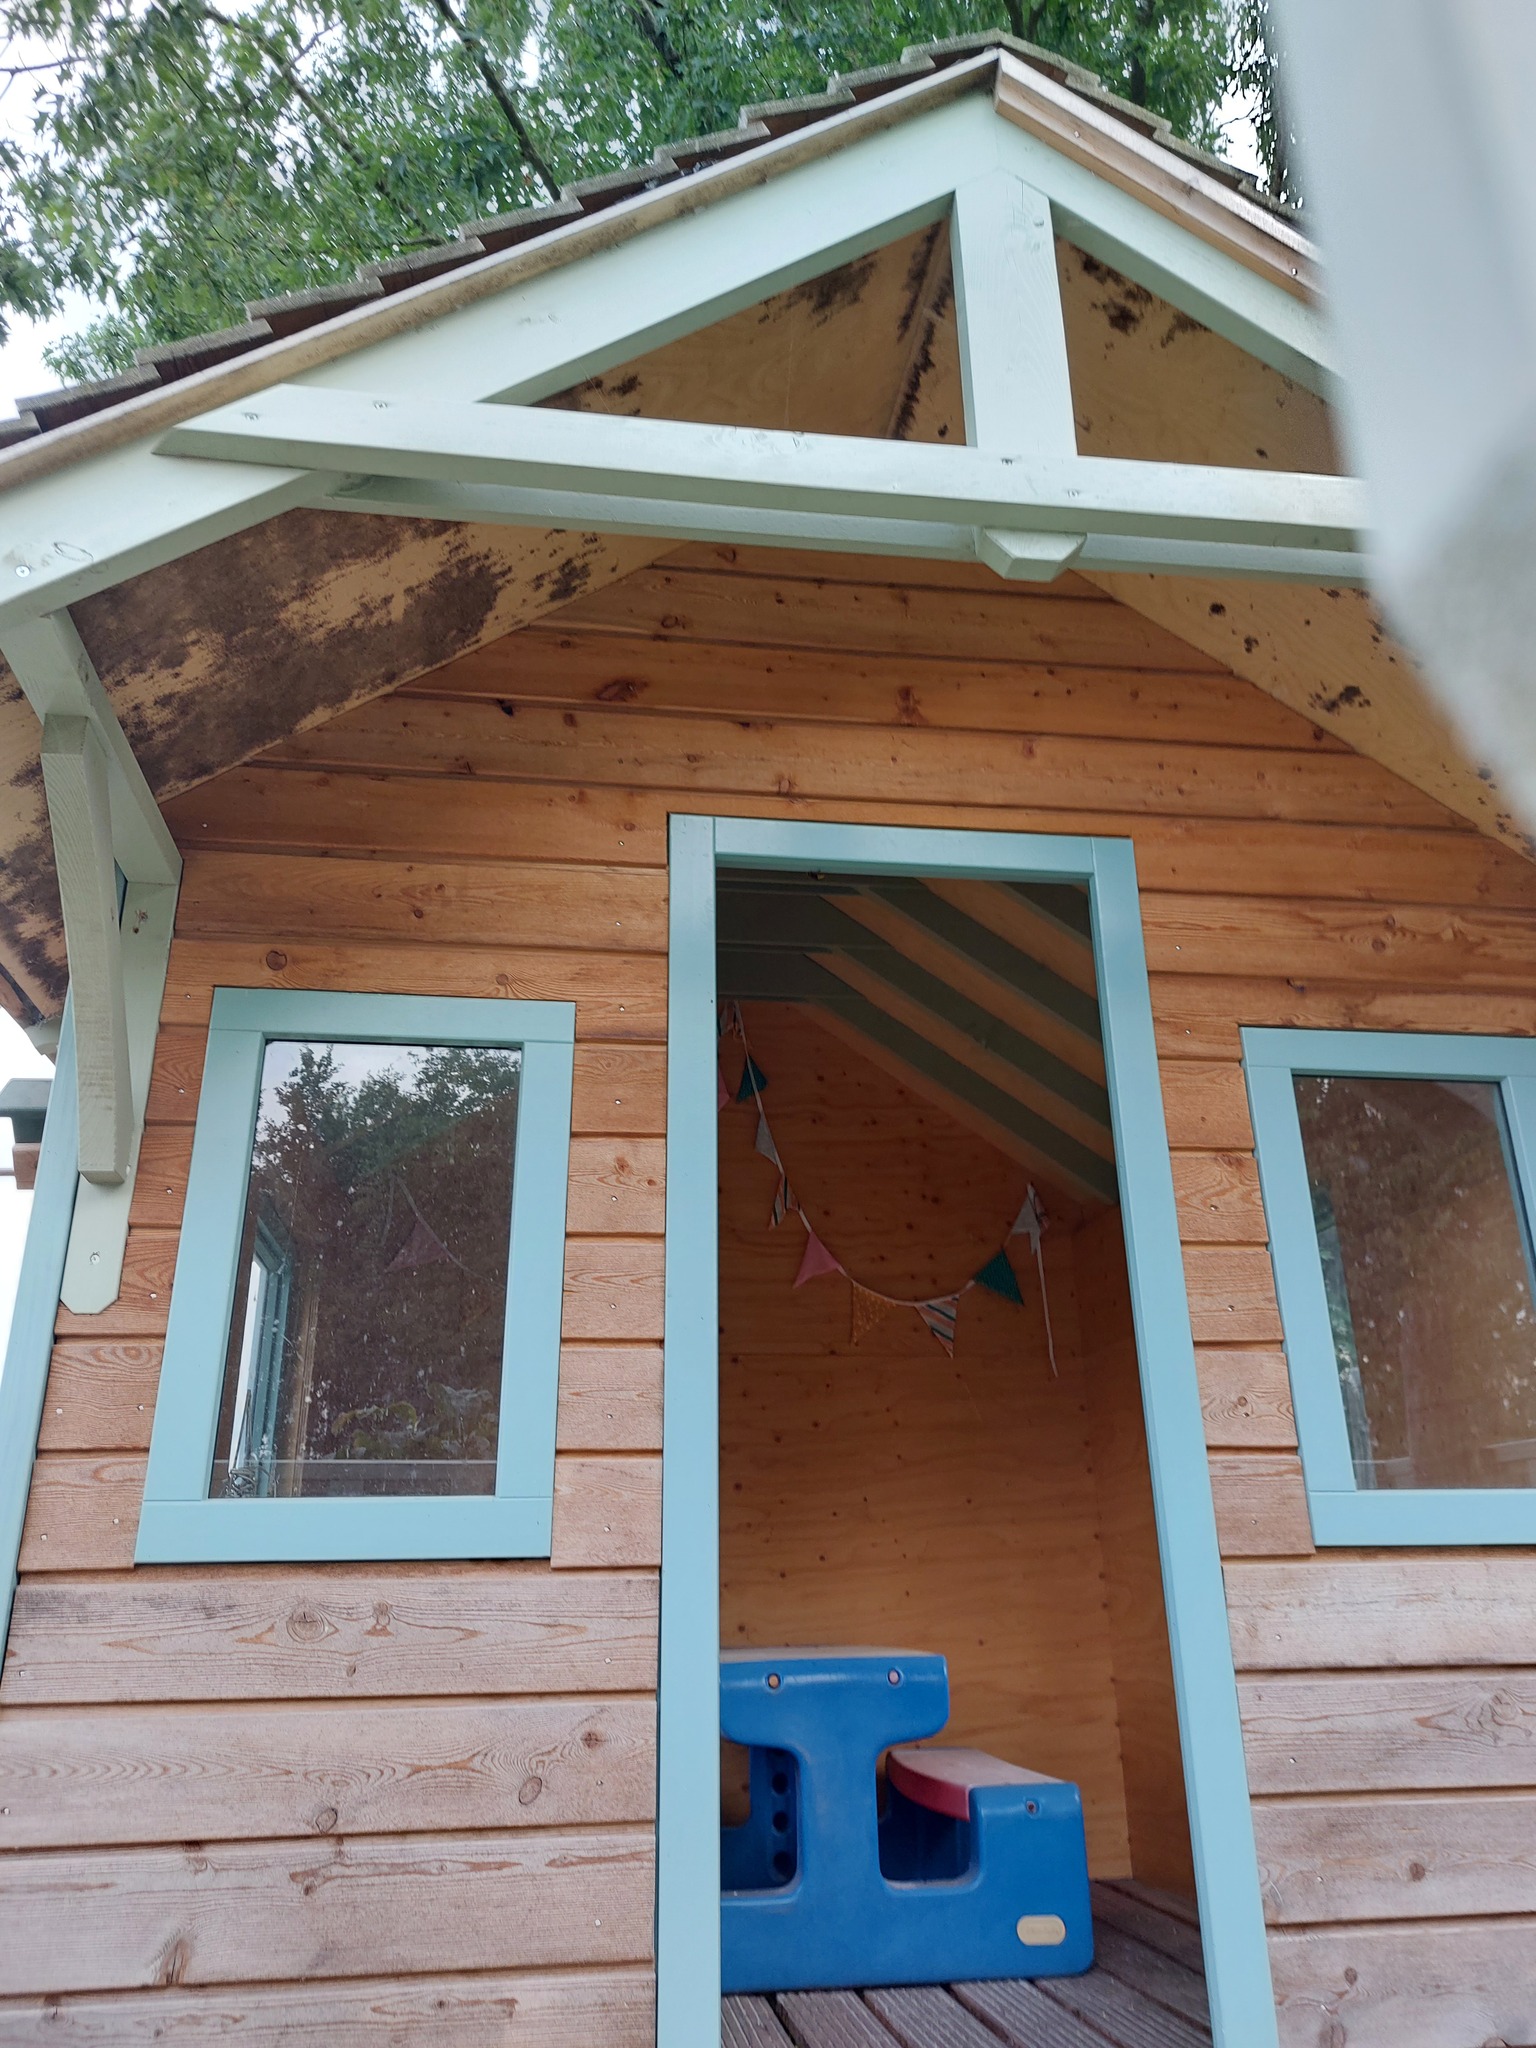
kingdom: Animalia
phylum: Arthropoda
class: Insecta
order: Hymenoptera
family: Vespidae
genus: Vespa
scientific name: Vespa crabro
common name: Hornet
